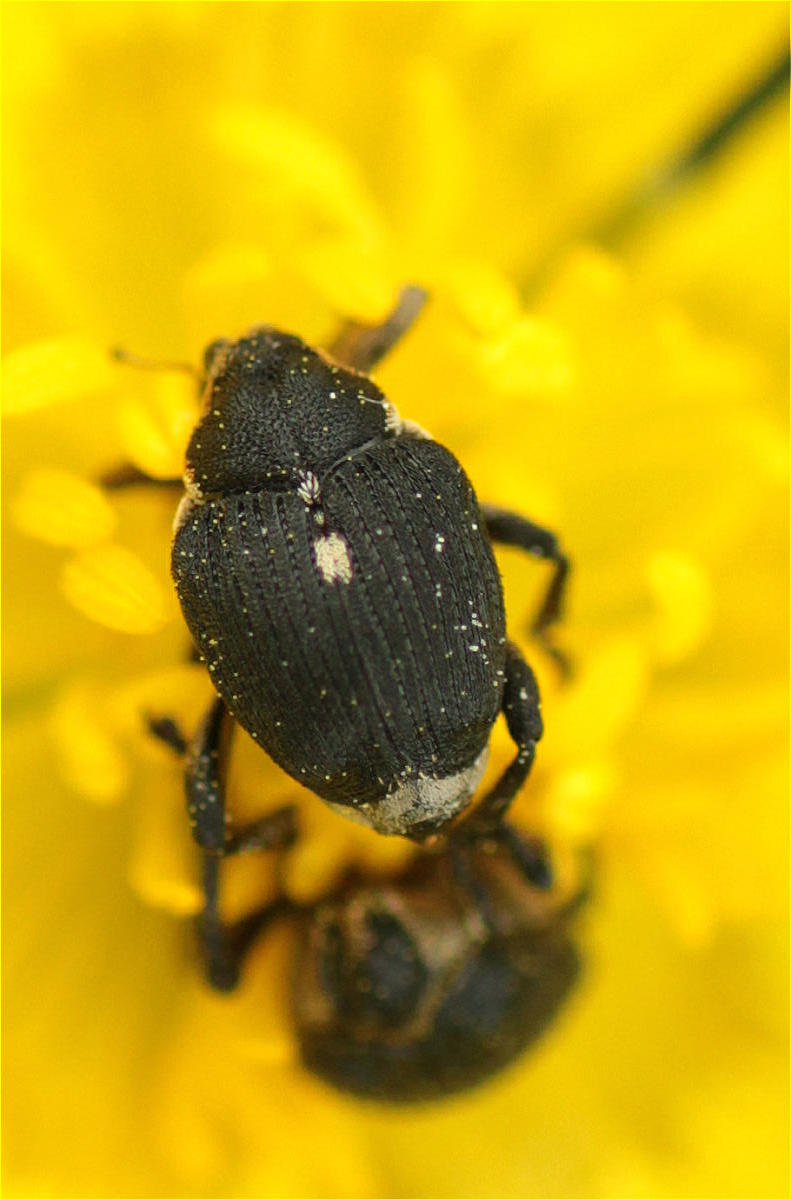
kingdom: Animalia
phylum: Arthropoda
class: Insecta
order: Coleoptera
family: Curculionidae
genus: Mononychus
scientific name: Mononychus punctumalbum
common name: Iris weevil
